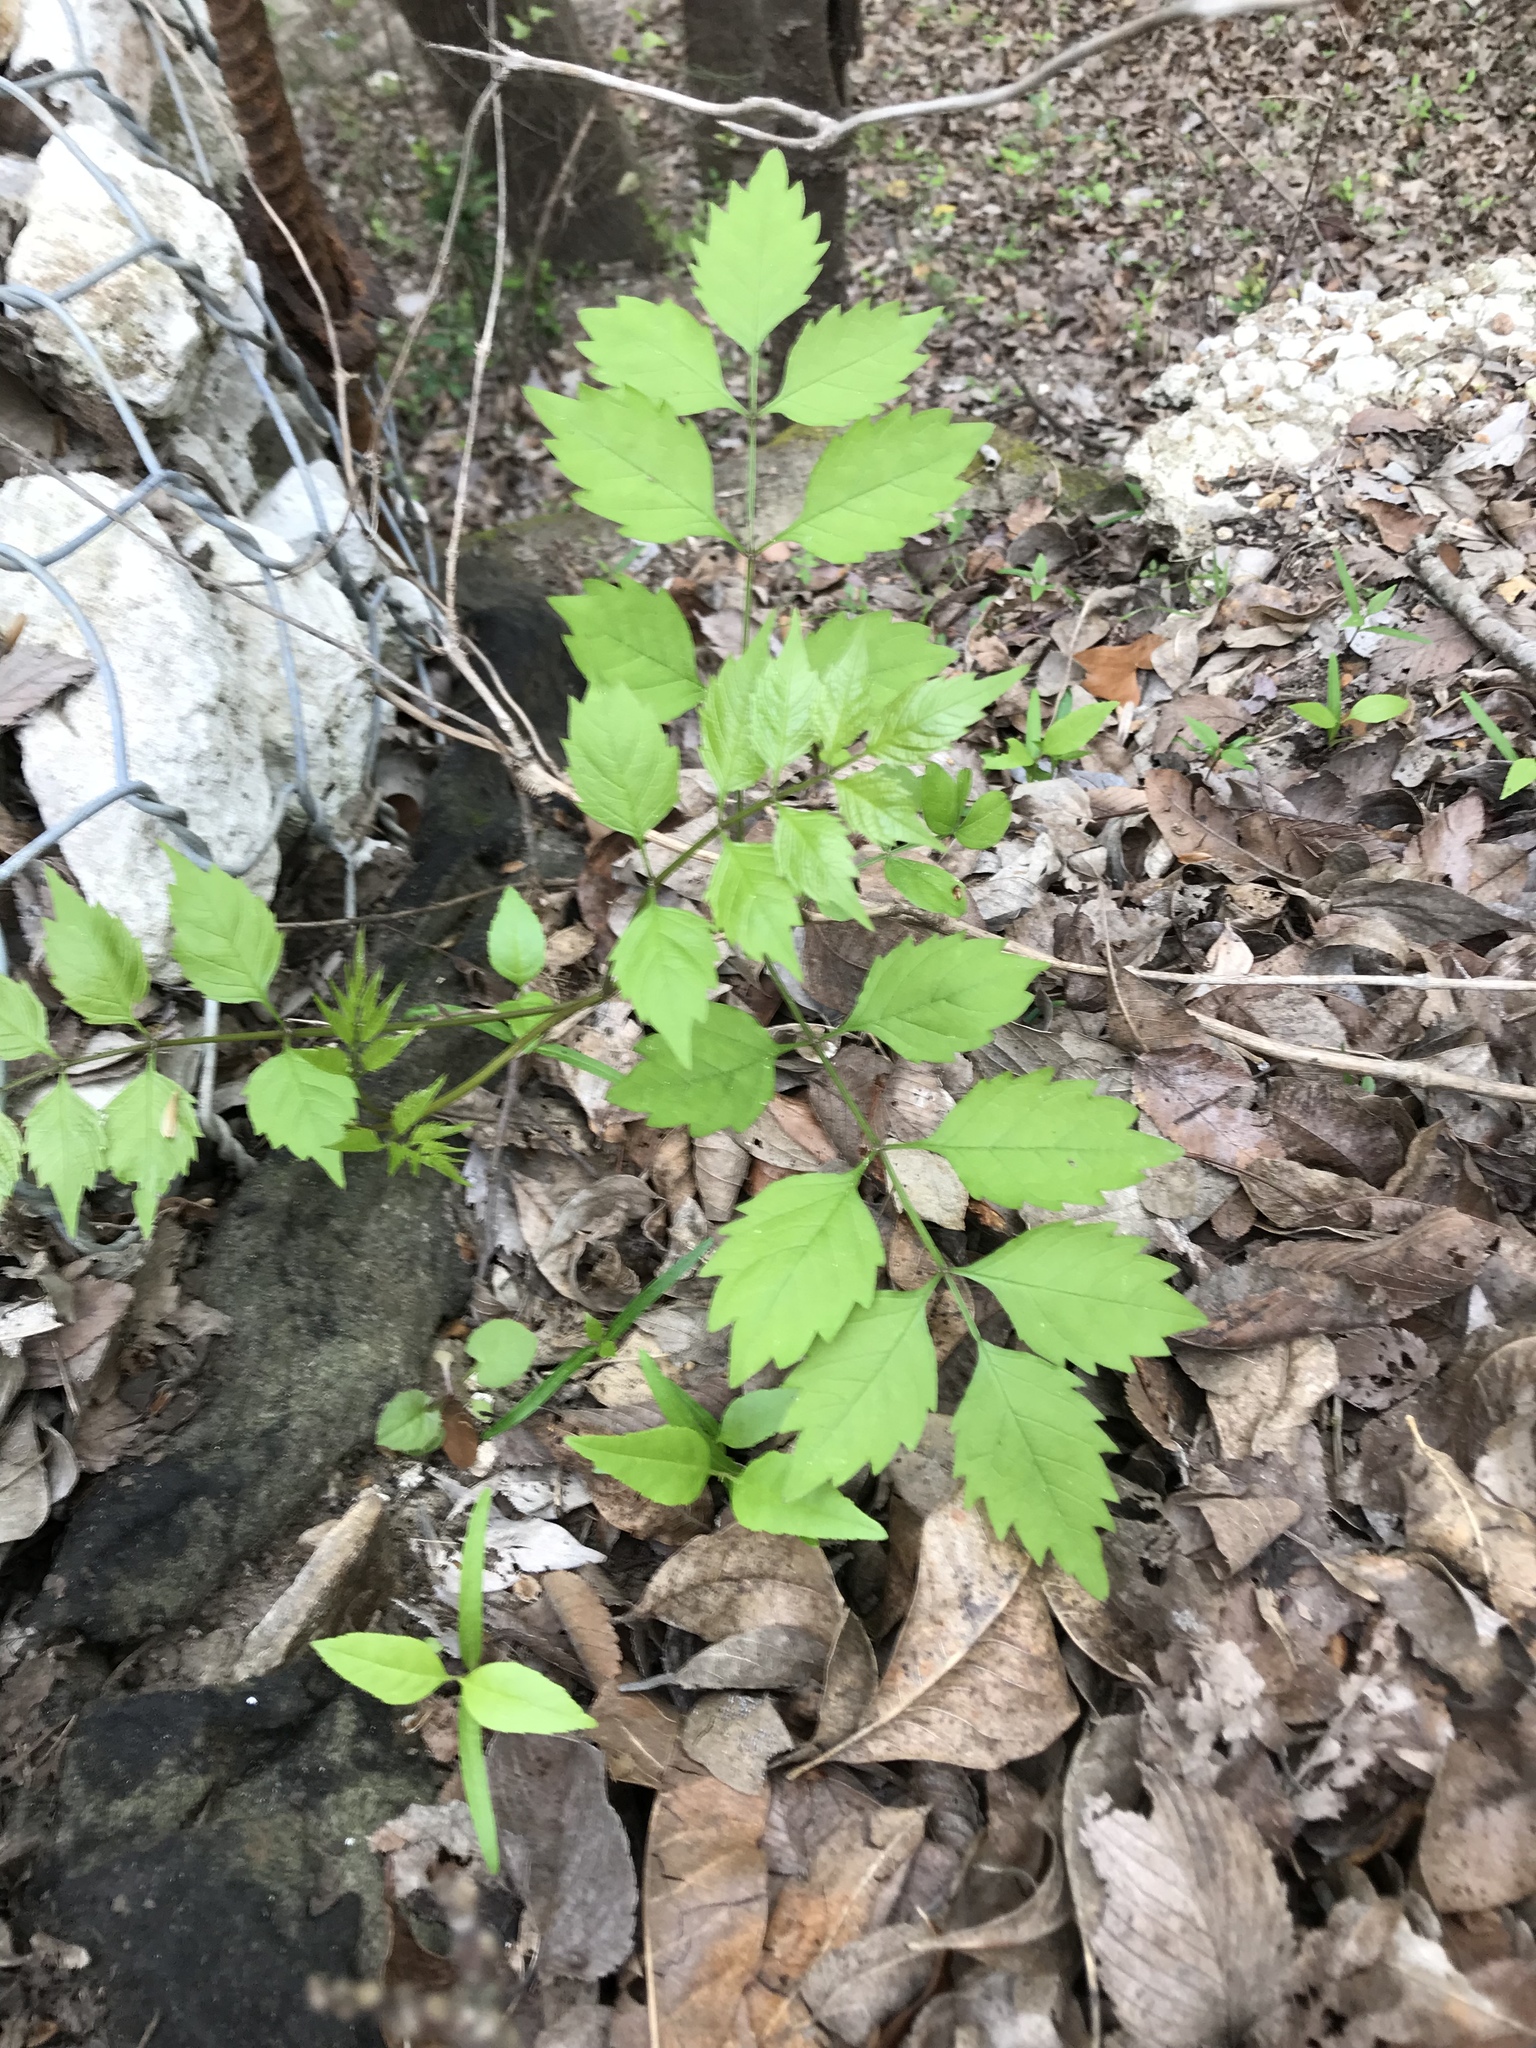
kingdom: Plantae
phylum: Tracheophyta
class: Magnoliopsida
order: Lamiales
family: Bignoniaceae
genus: Campsis
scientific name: Campsis radicans
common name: Trumpet-creeper
